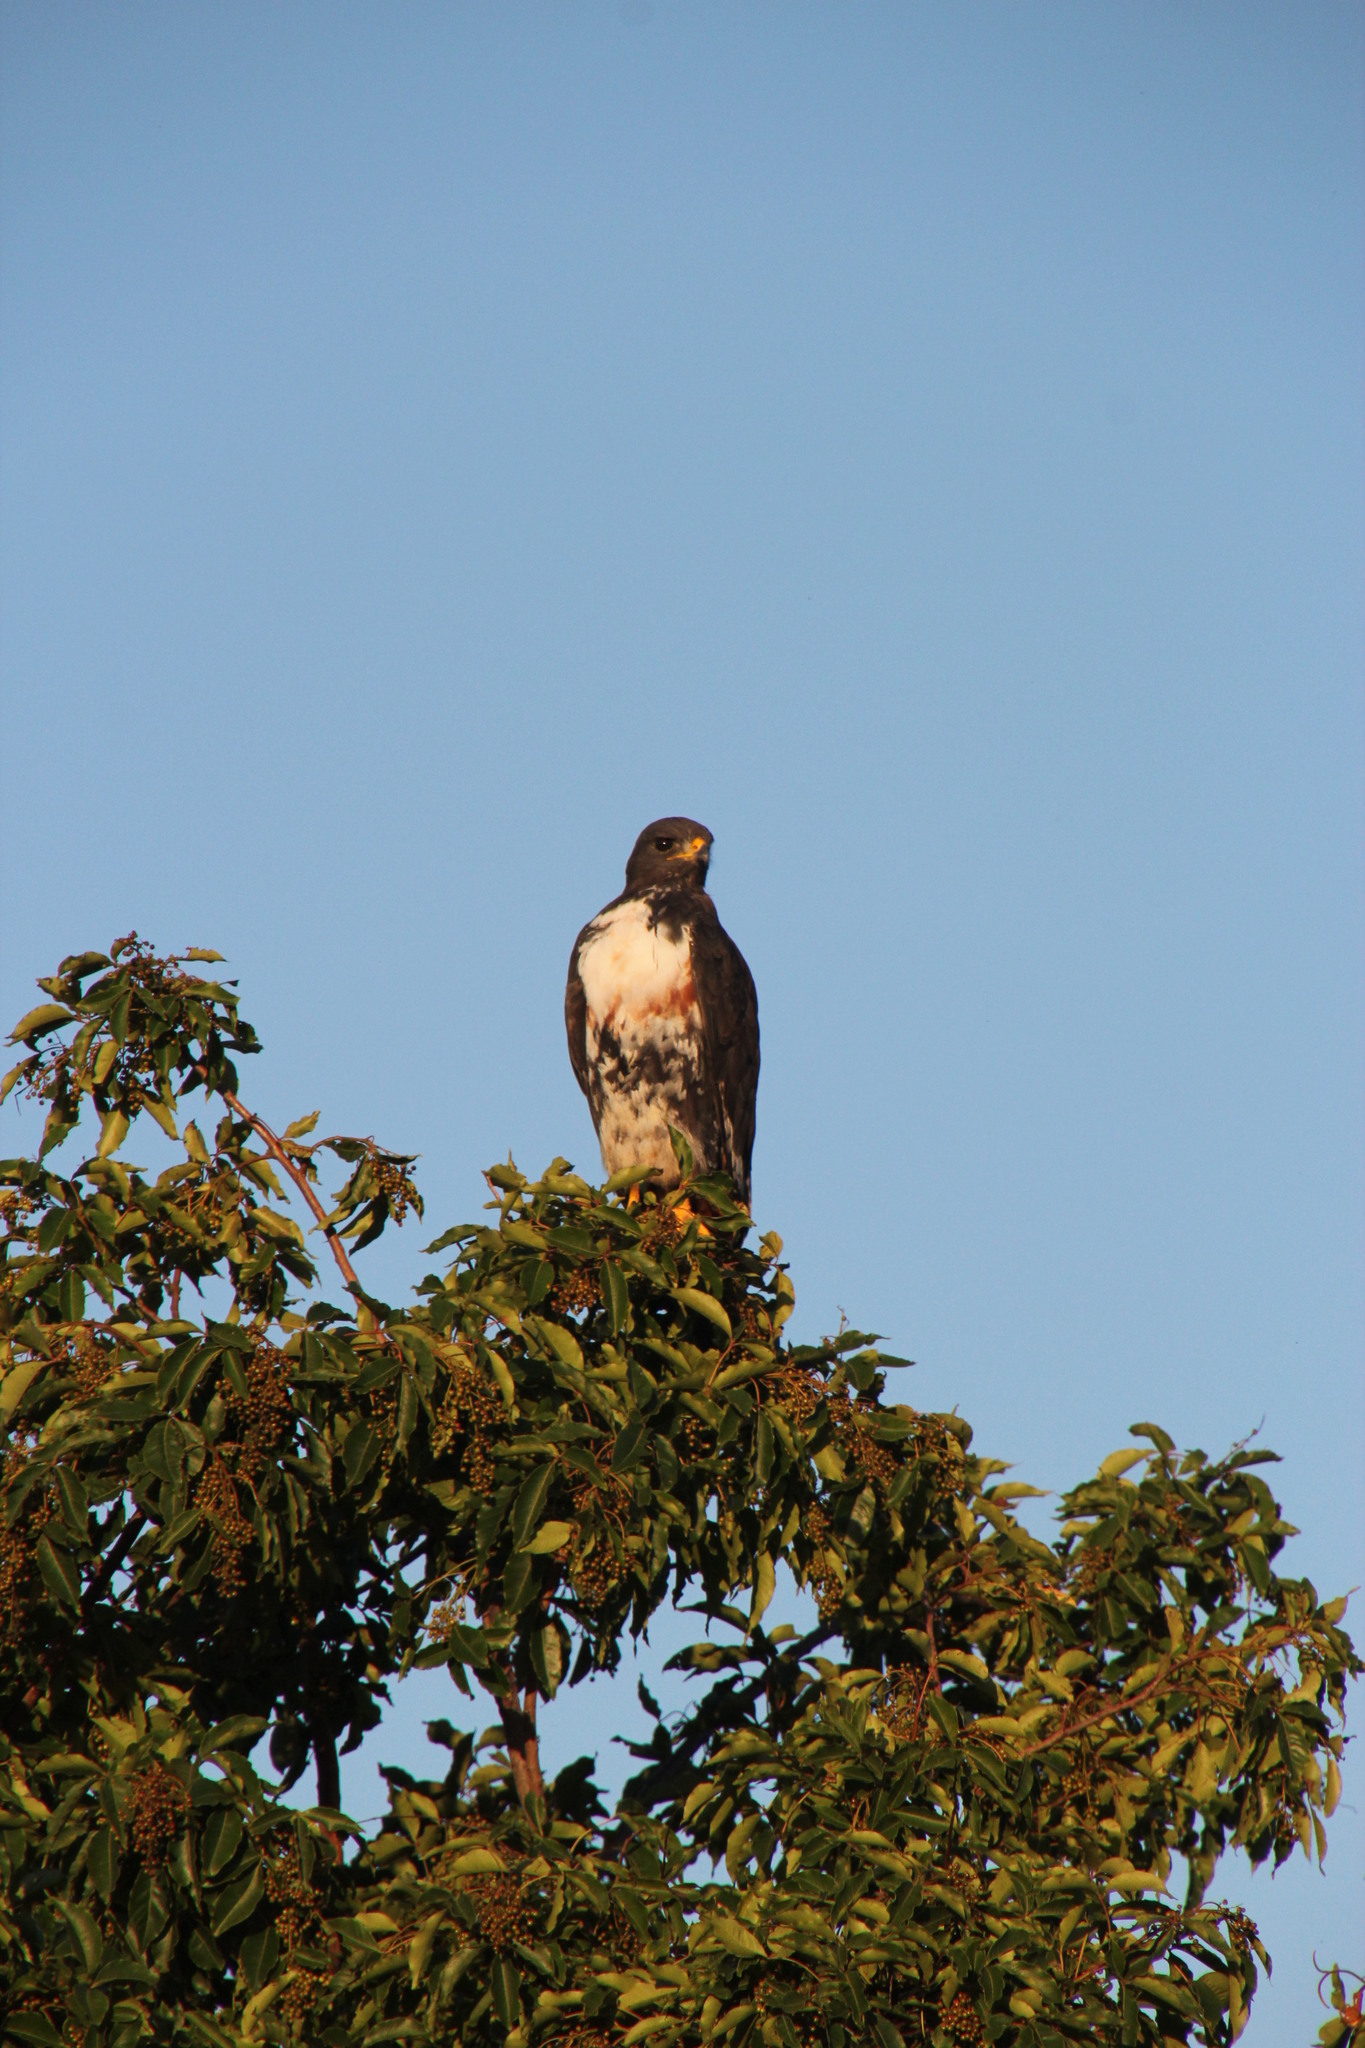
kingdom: Animalia
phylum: Chordata
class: Aves
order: Accipitriformes
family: Accipitridae
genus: Buteo
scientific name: Buteo rufofuscus
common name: Jackal buzzard
